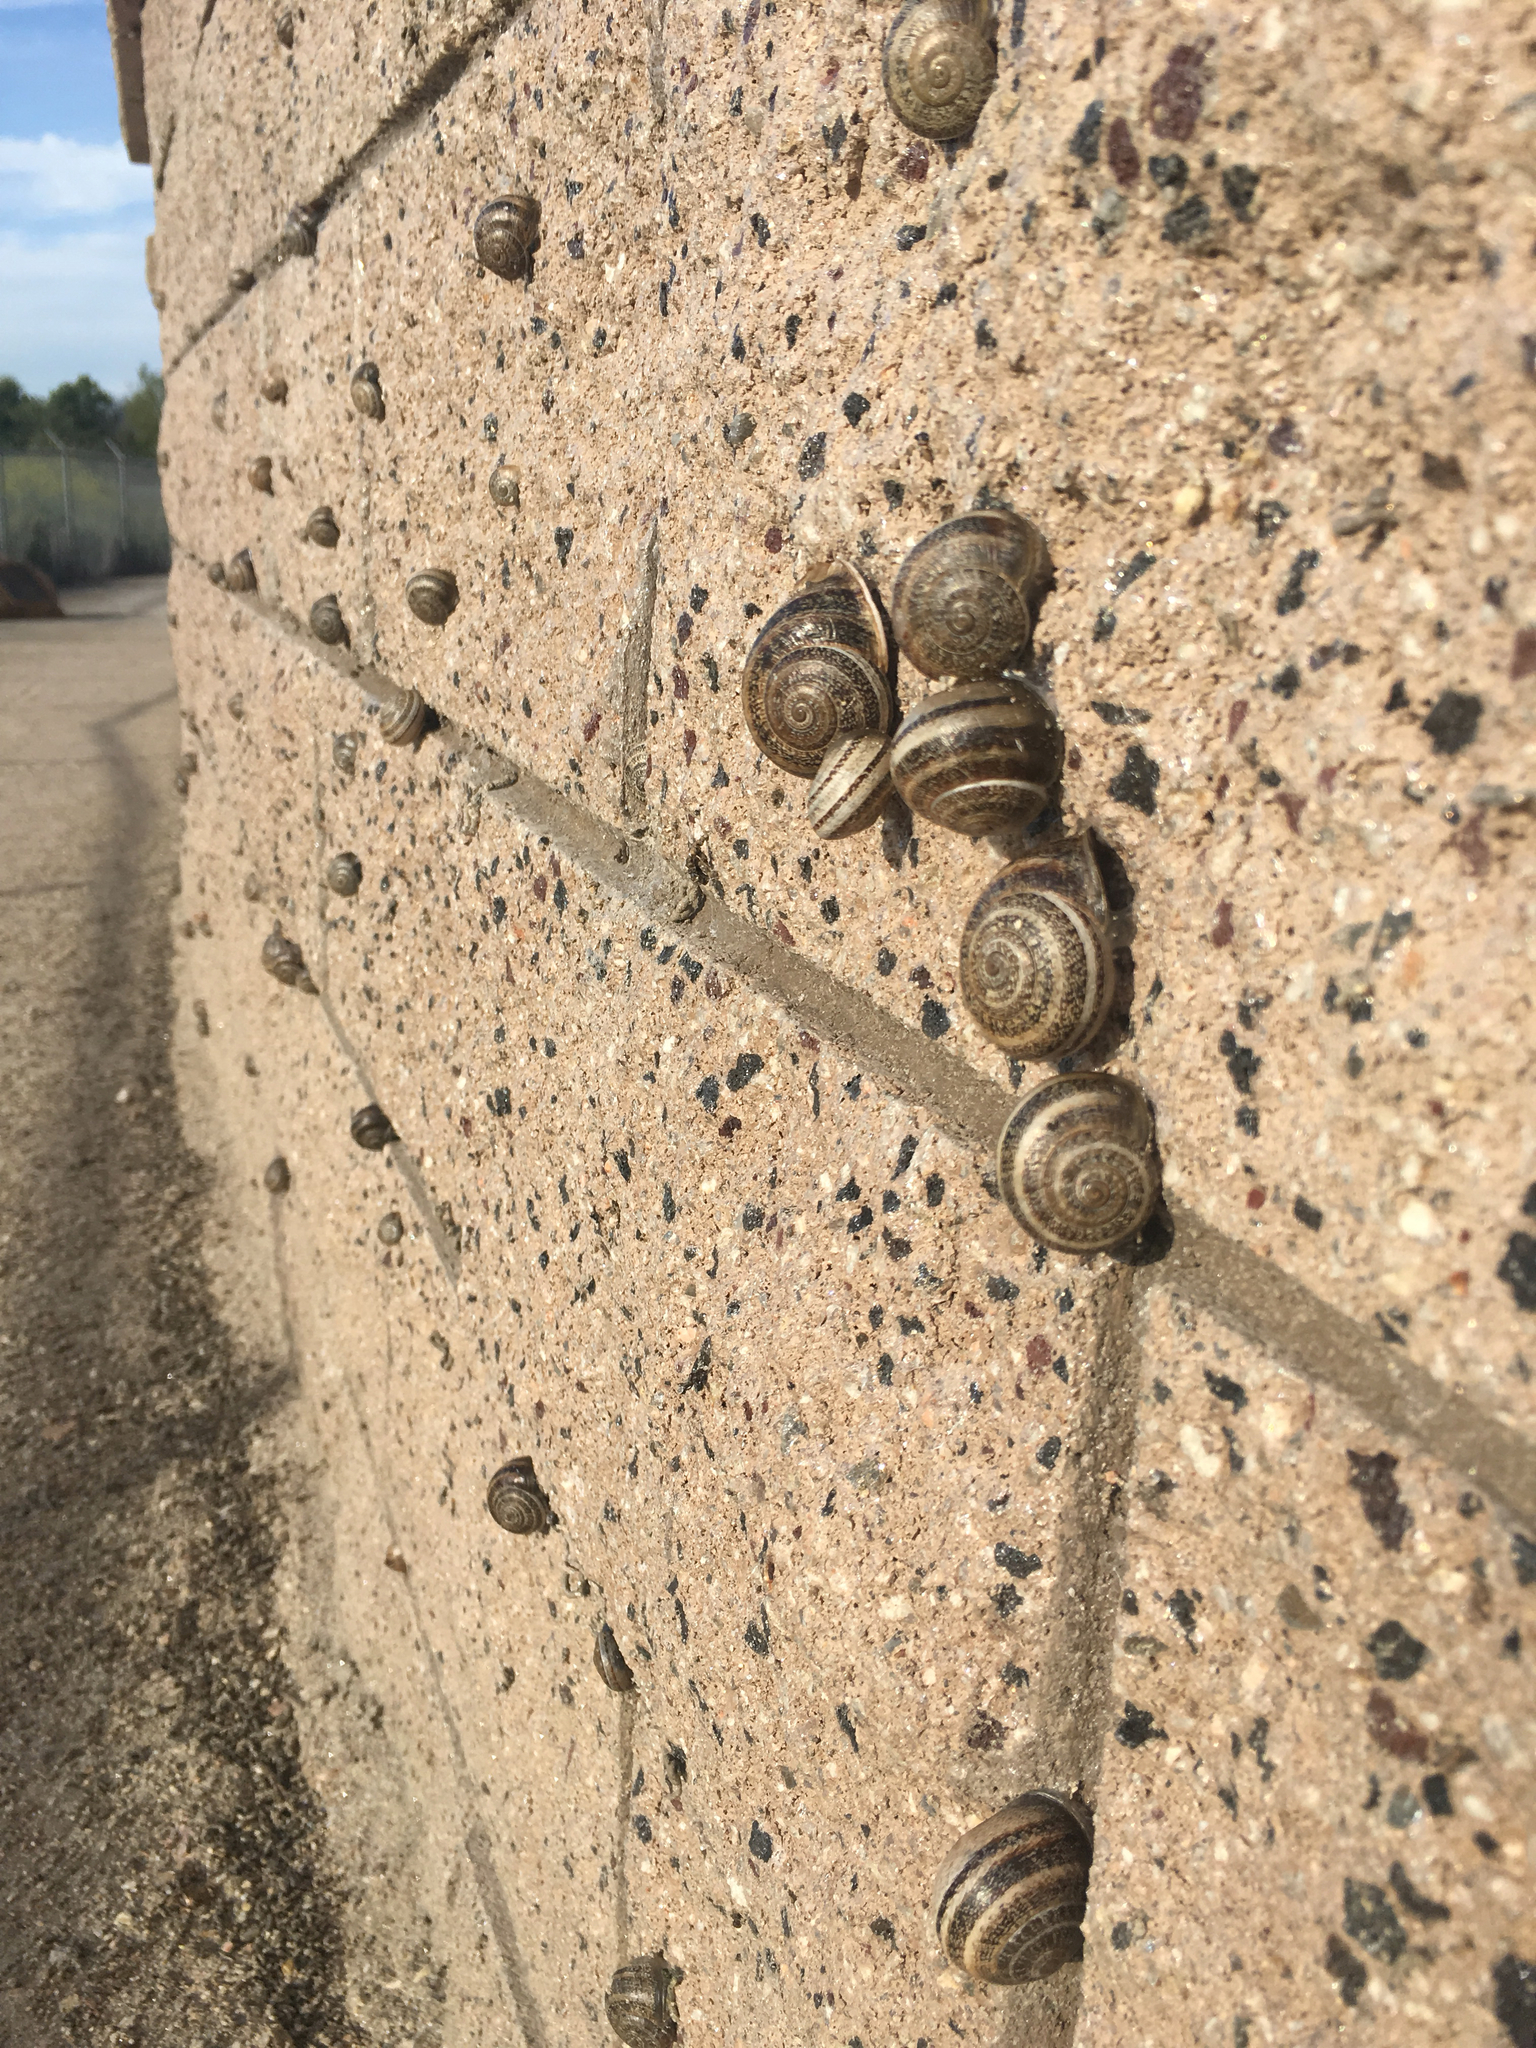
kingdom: Animalia
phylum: Mollusca
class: Gastropoda
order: Stylommatophora
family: Helicidae
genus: Otala
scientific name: Otala lactea
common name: Milk snail
